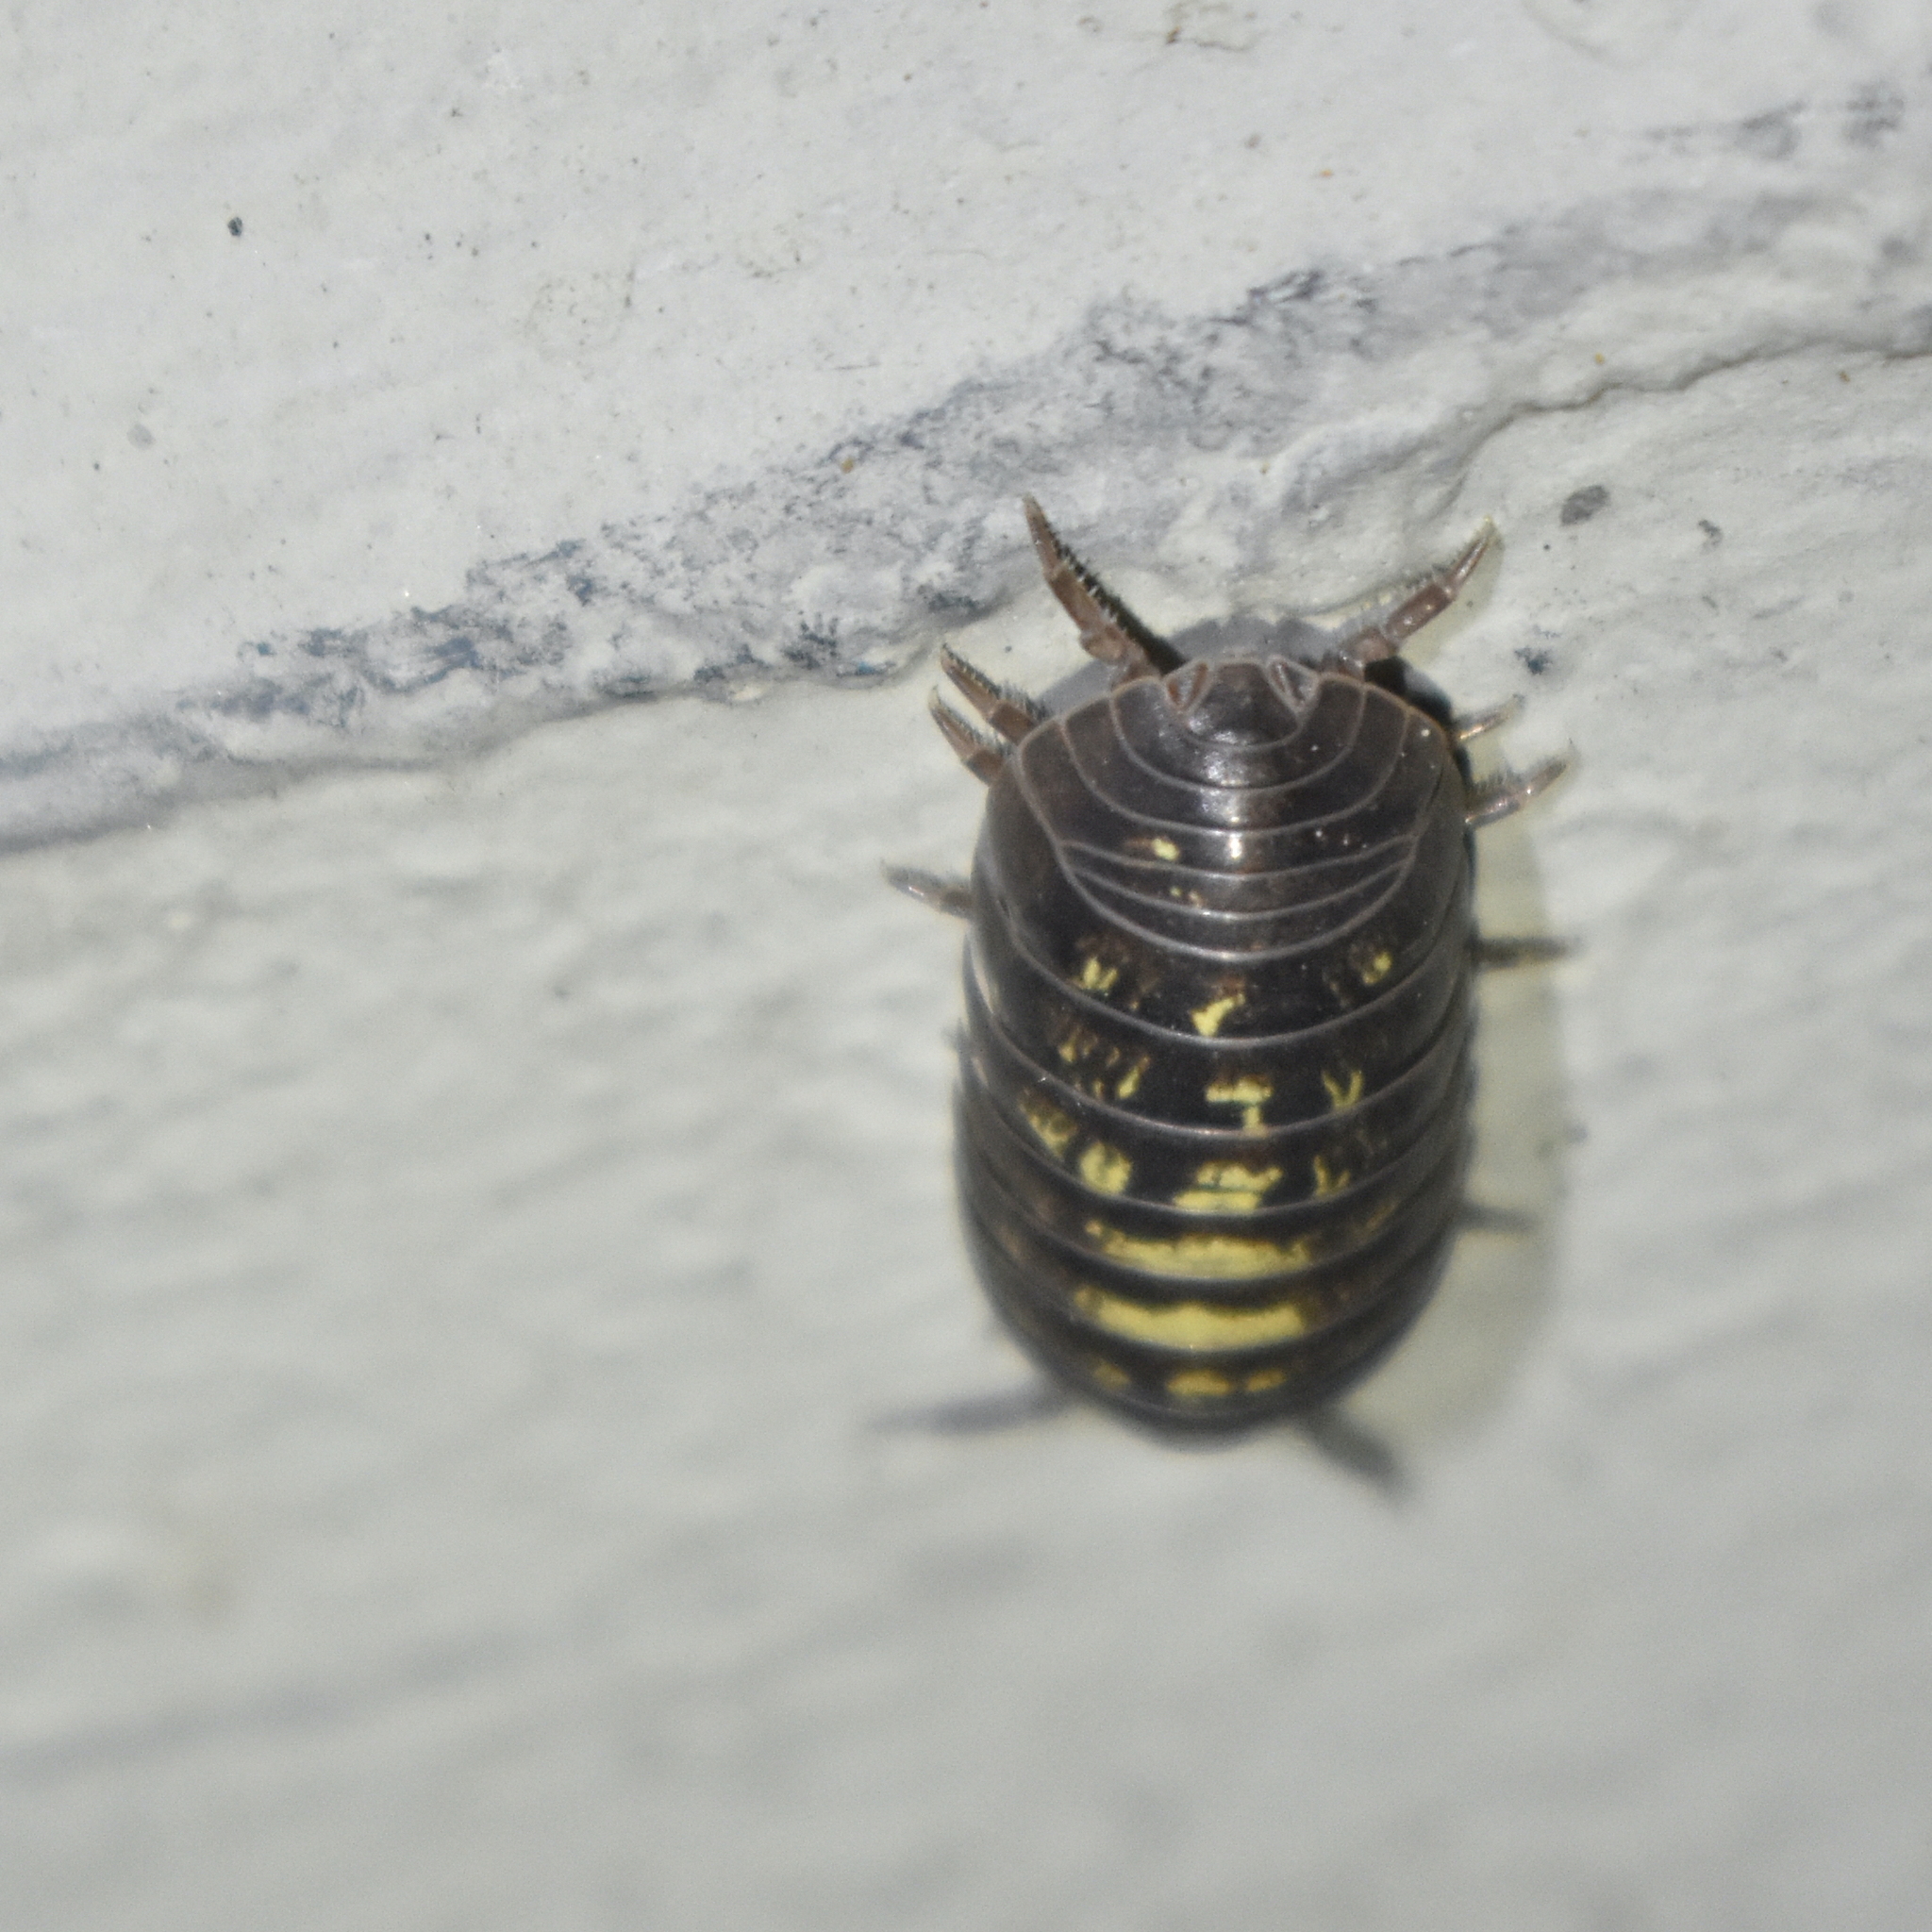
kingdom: Animalia
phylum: Arthropoda
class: Malacostraca
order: Isopoda
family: Armadillidiidae
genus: Armadillidium
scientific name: Armadillidium vulgare
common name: Common pill woodlouse
